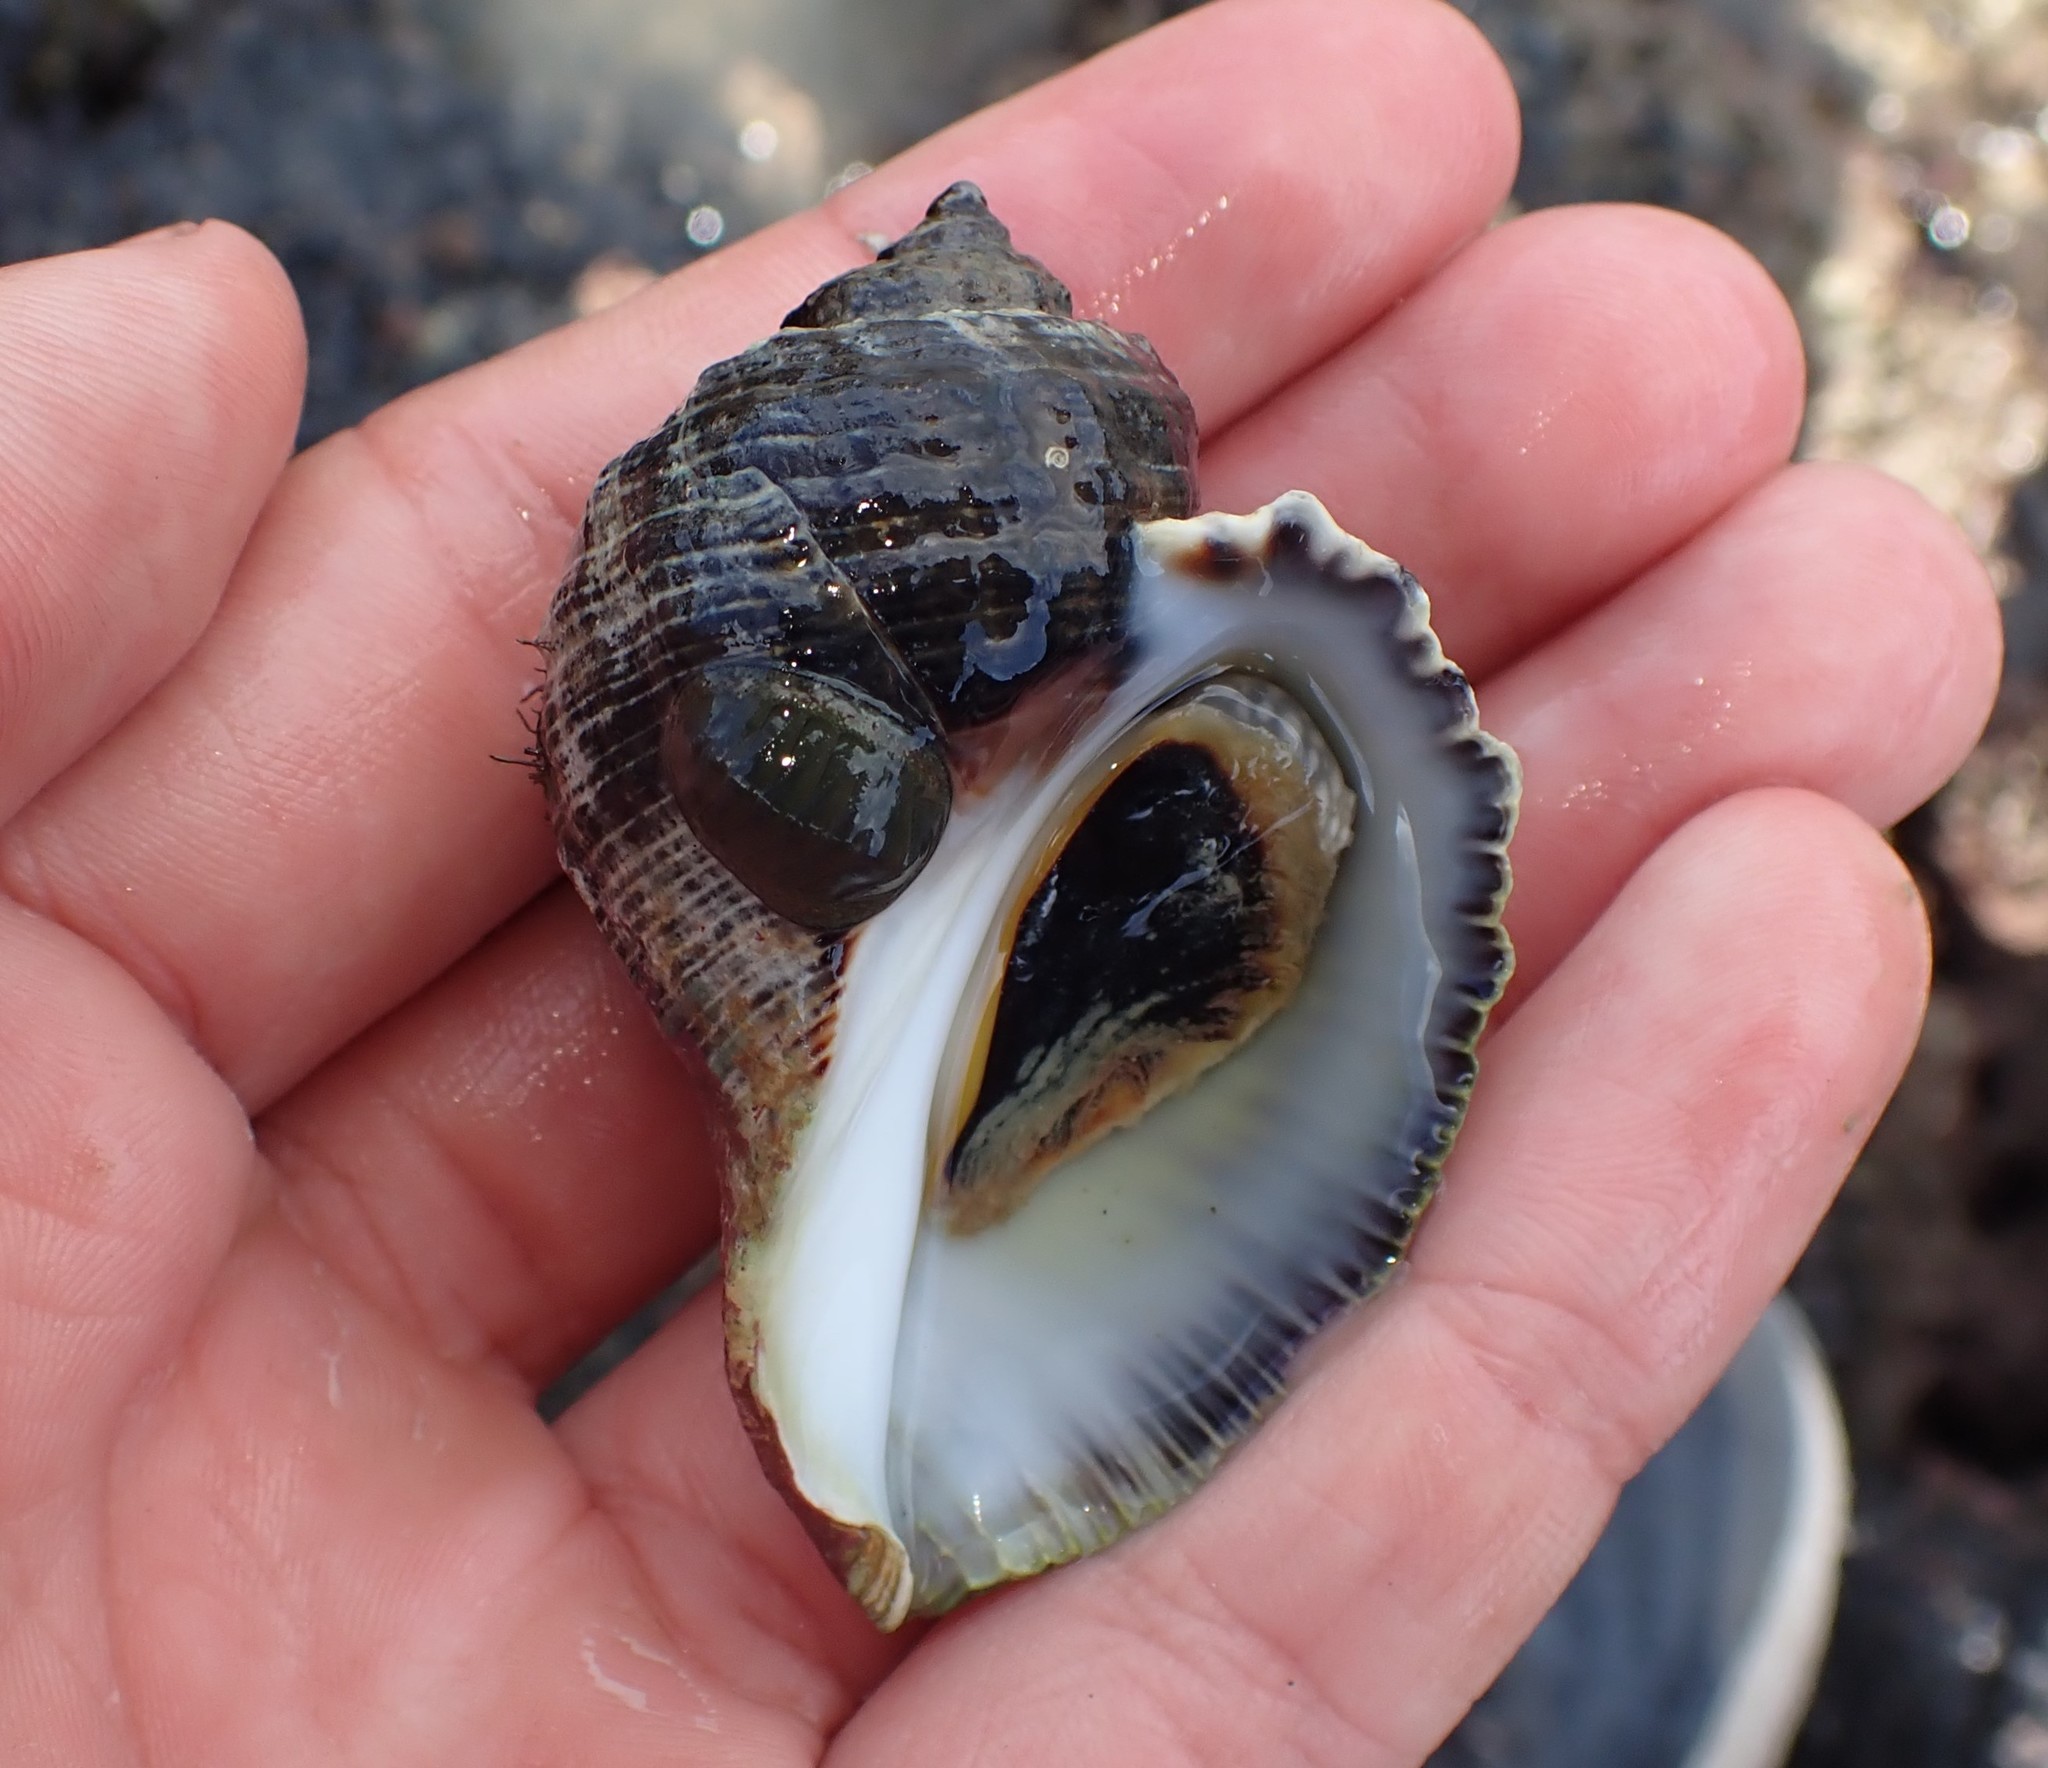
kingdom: Animalia
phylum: Mollusca
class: Gastropoda
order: Neogastropoda
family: Muricidae
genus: Haustrum
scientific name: Haustrum haustorium
